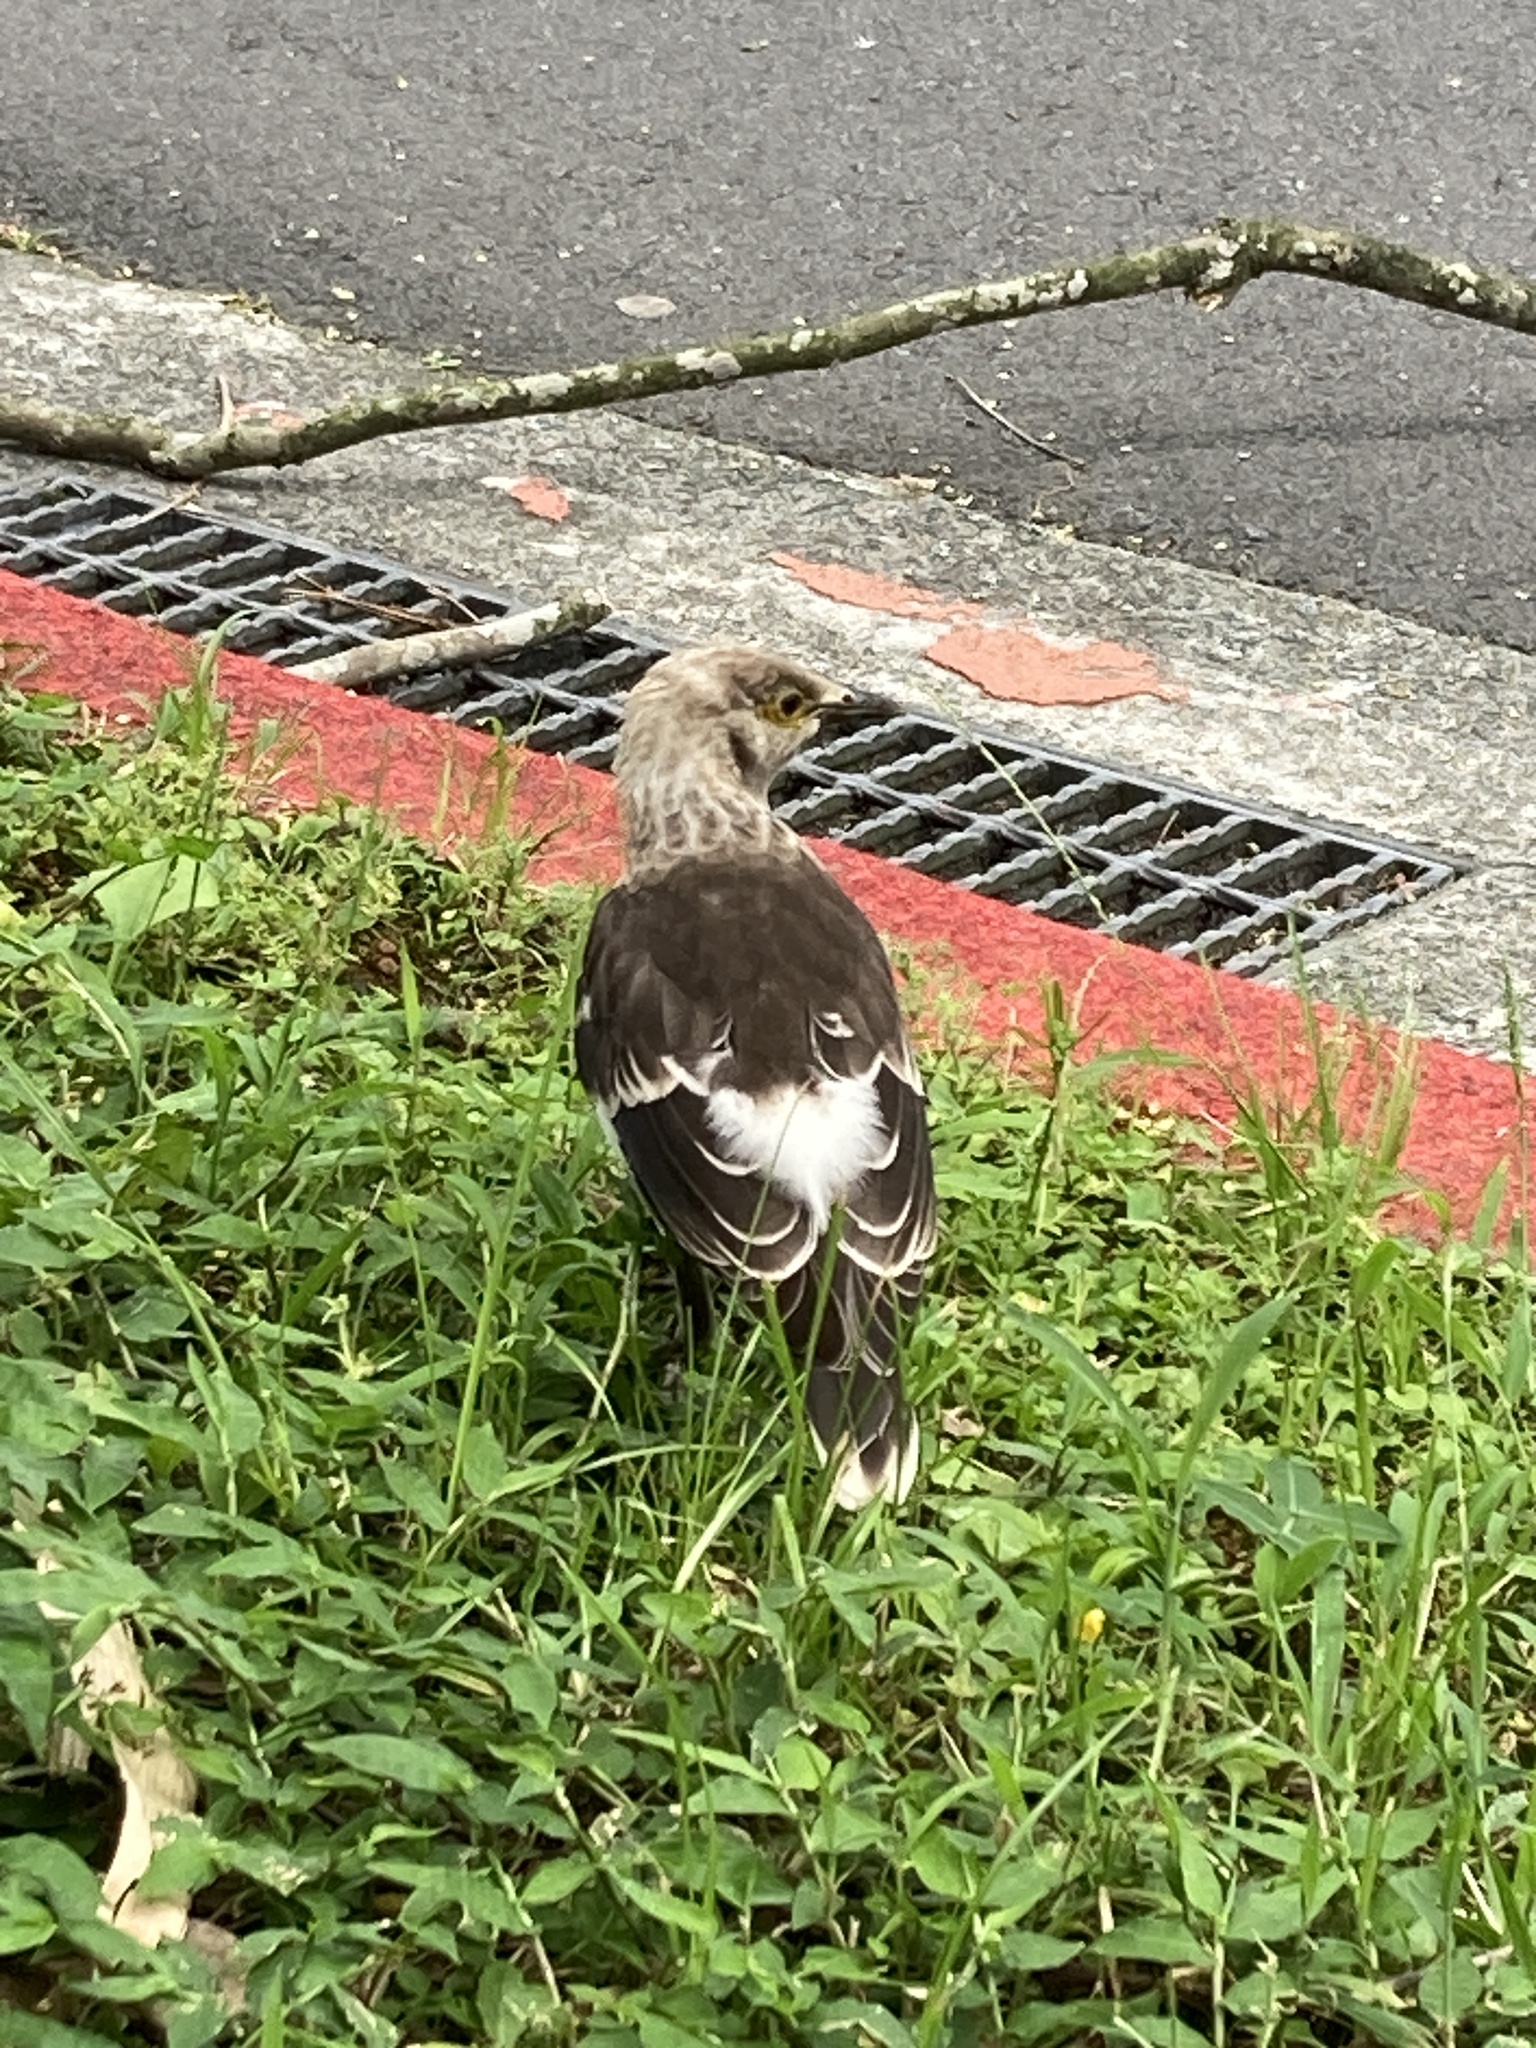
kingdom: Animalia
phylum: Chordata
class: Aves
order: Passeriformes
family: Sturnidae
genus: Gracupica
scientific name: Gracupica nigricollis
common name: Black-collared starling
